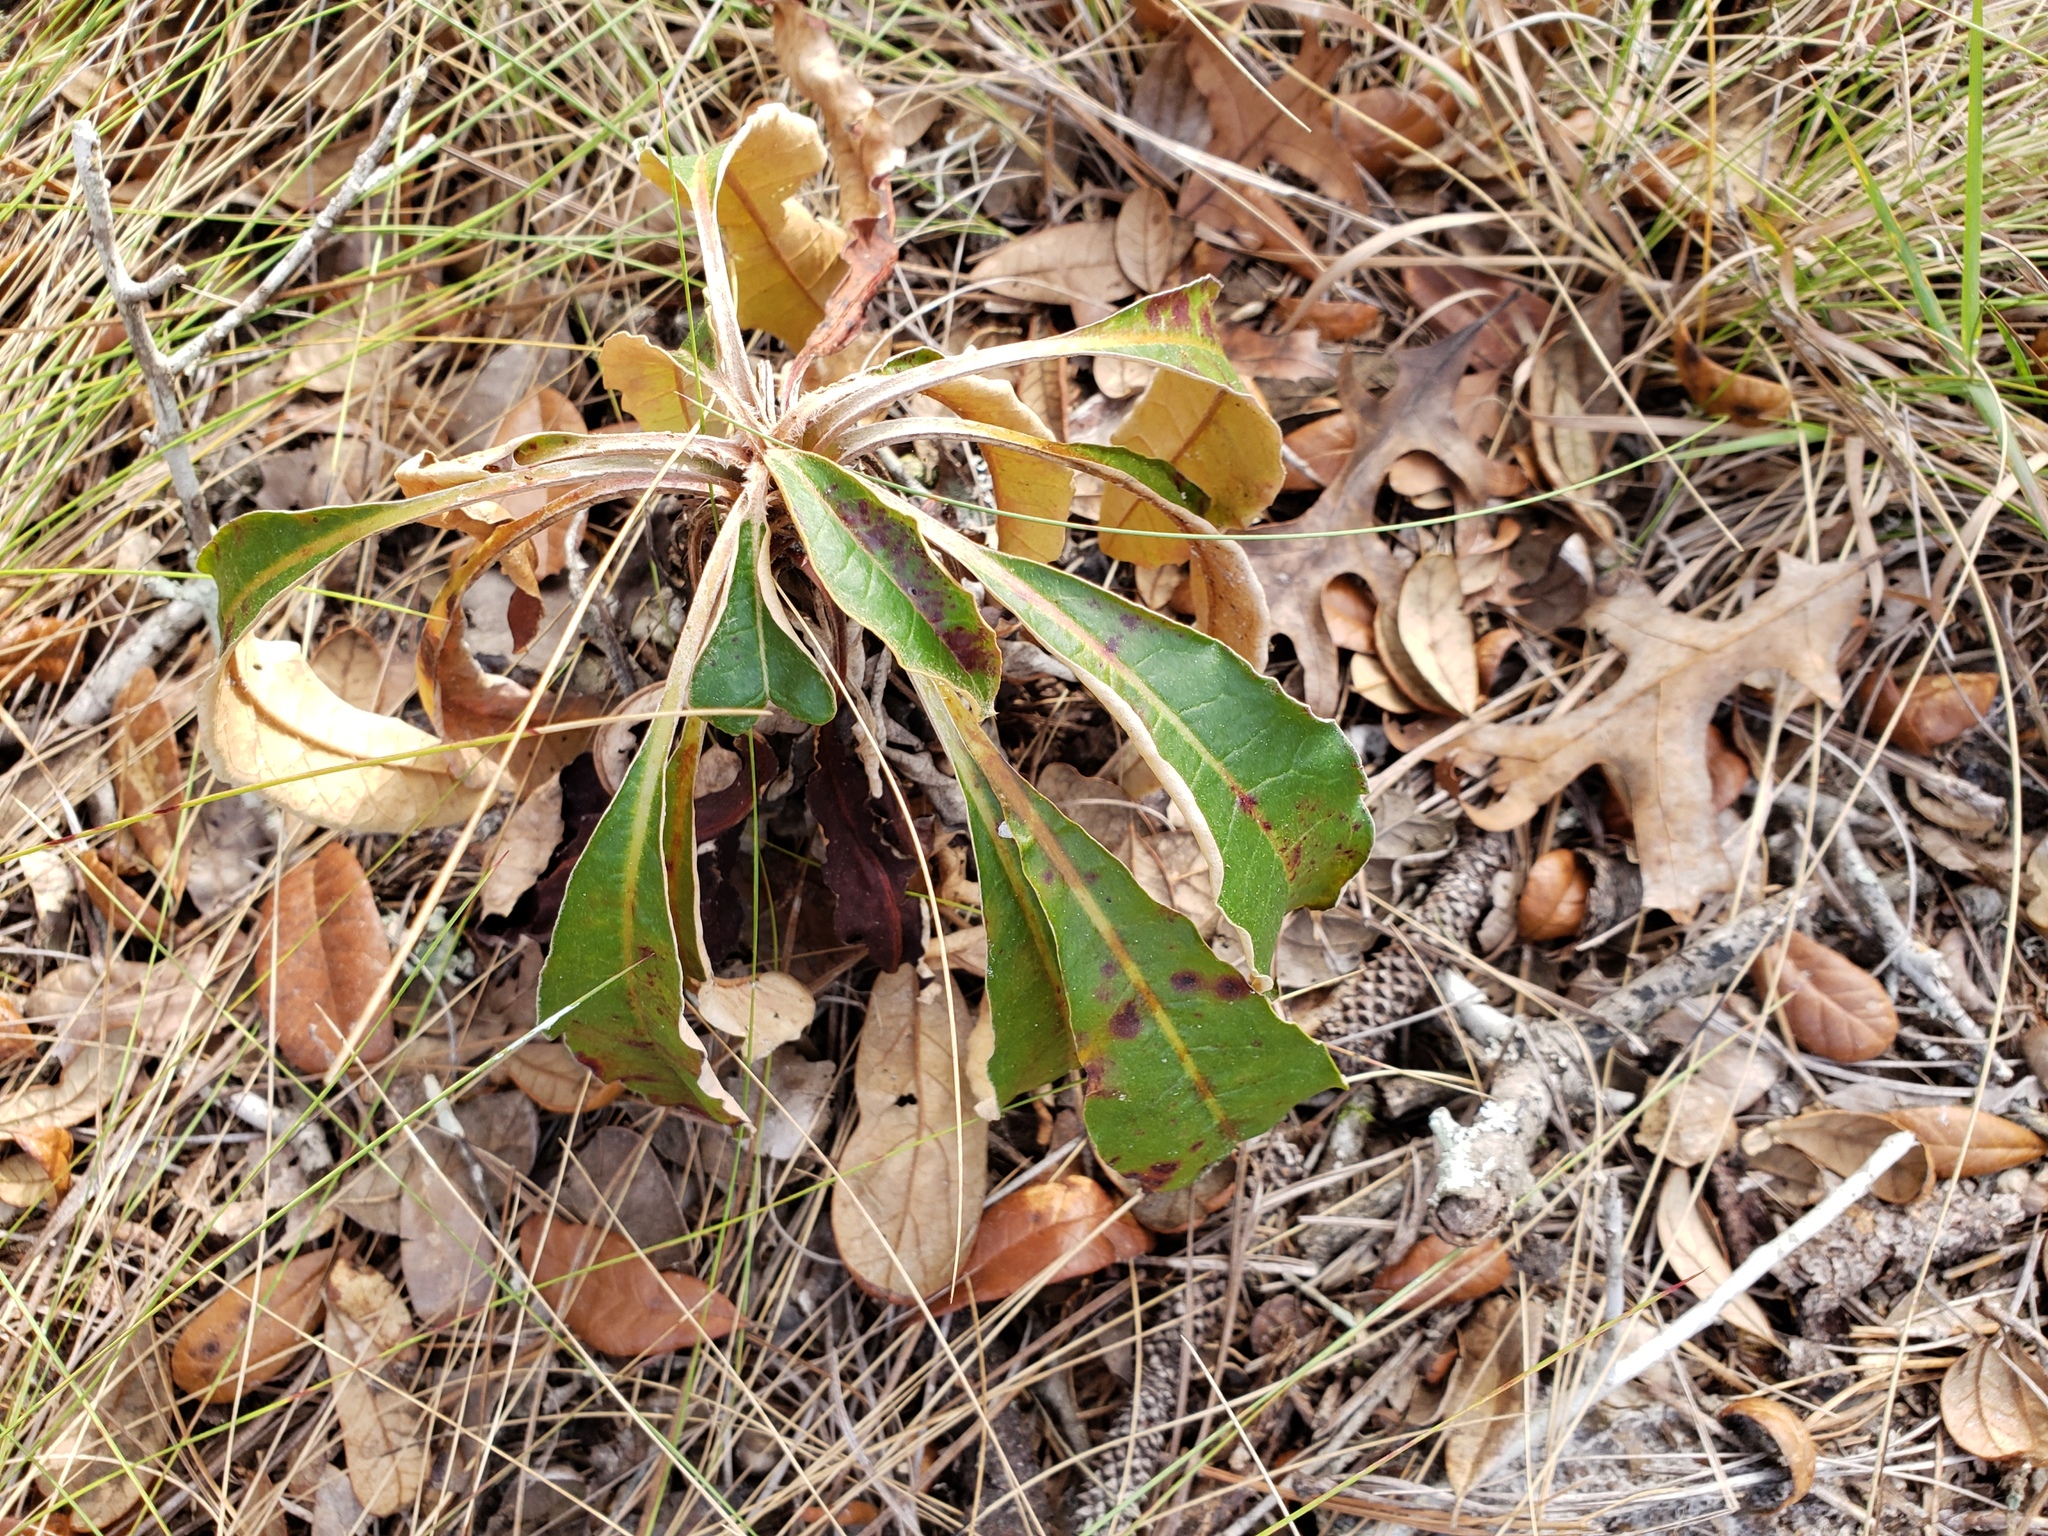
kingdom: Plantae
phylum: Tracheophyta
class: Magnoliopsida
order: Caryophyllales
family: Polygonaceae
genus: Eriogonum
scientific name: Eriogonum tomentosum
